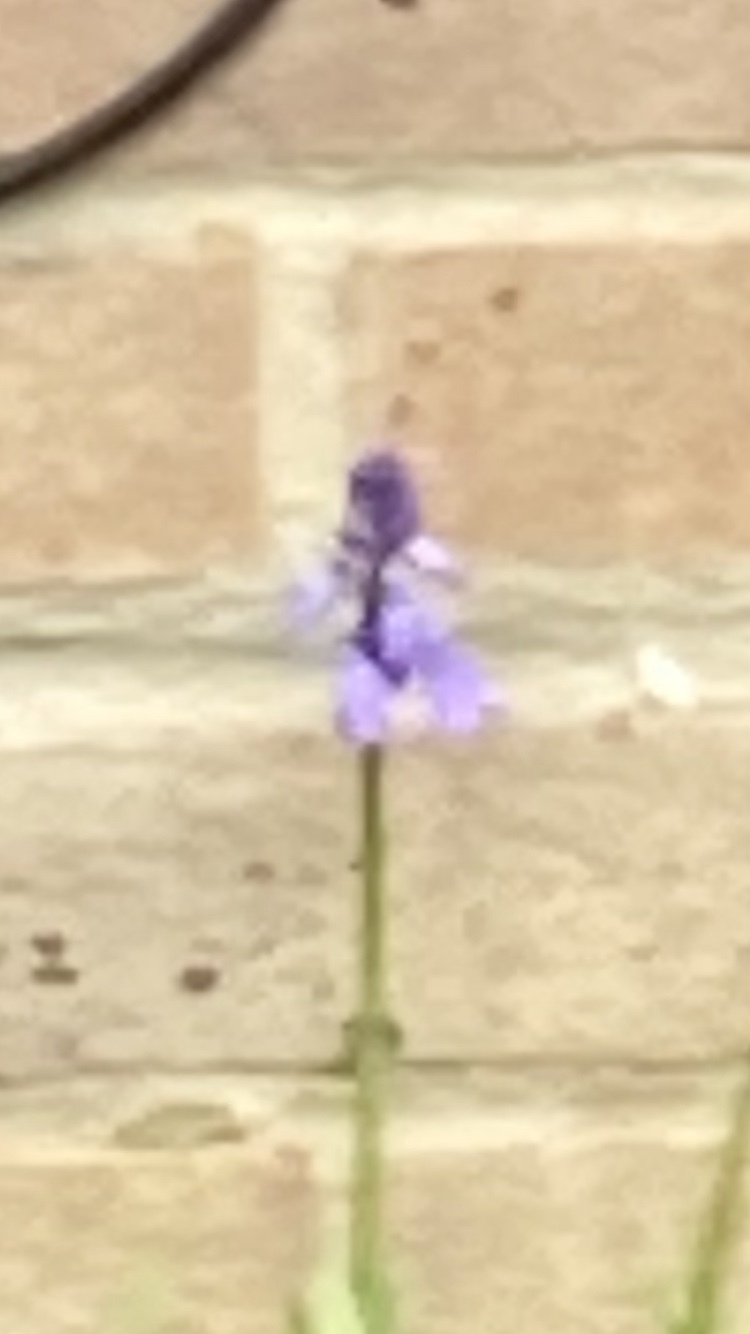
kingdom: Plantae
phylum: Tracheophyta
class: Liliopsida
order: Asparagales
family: Asparagaceae
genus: Hyacinthoides
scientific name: Hyacinthoides hispanica
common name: Spanish bluebell
